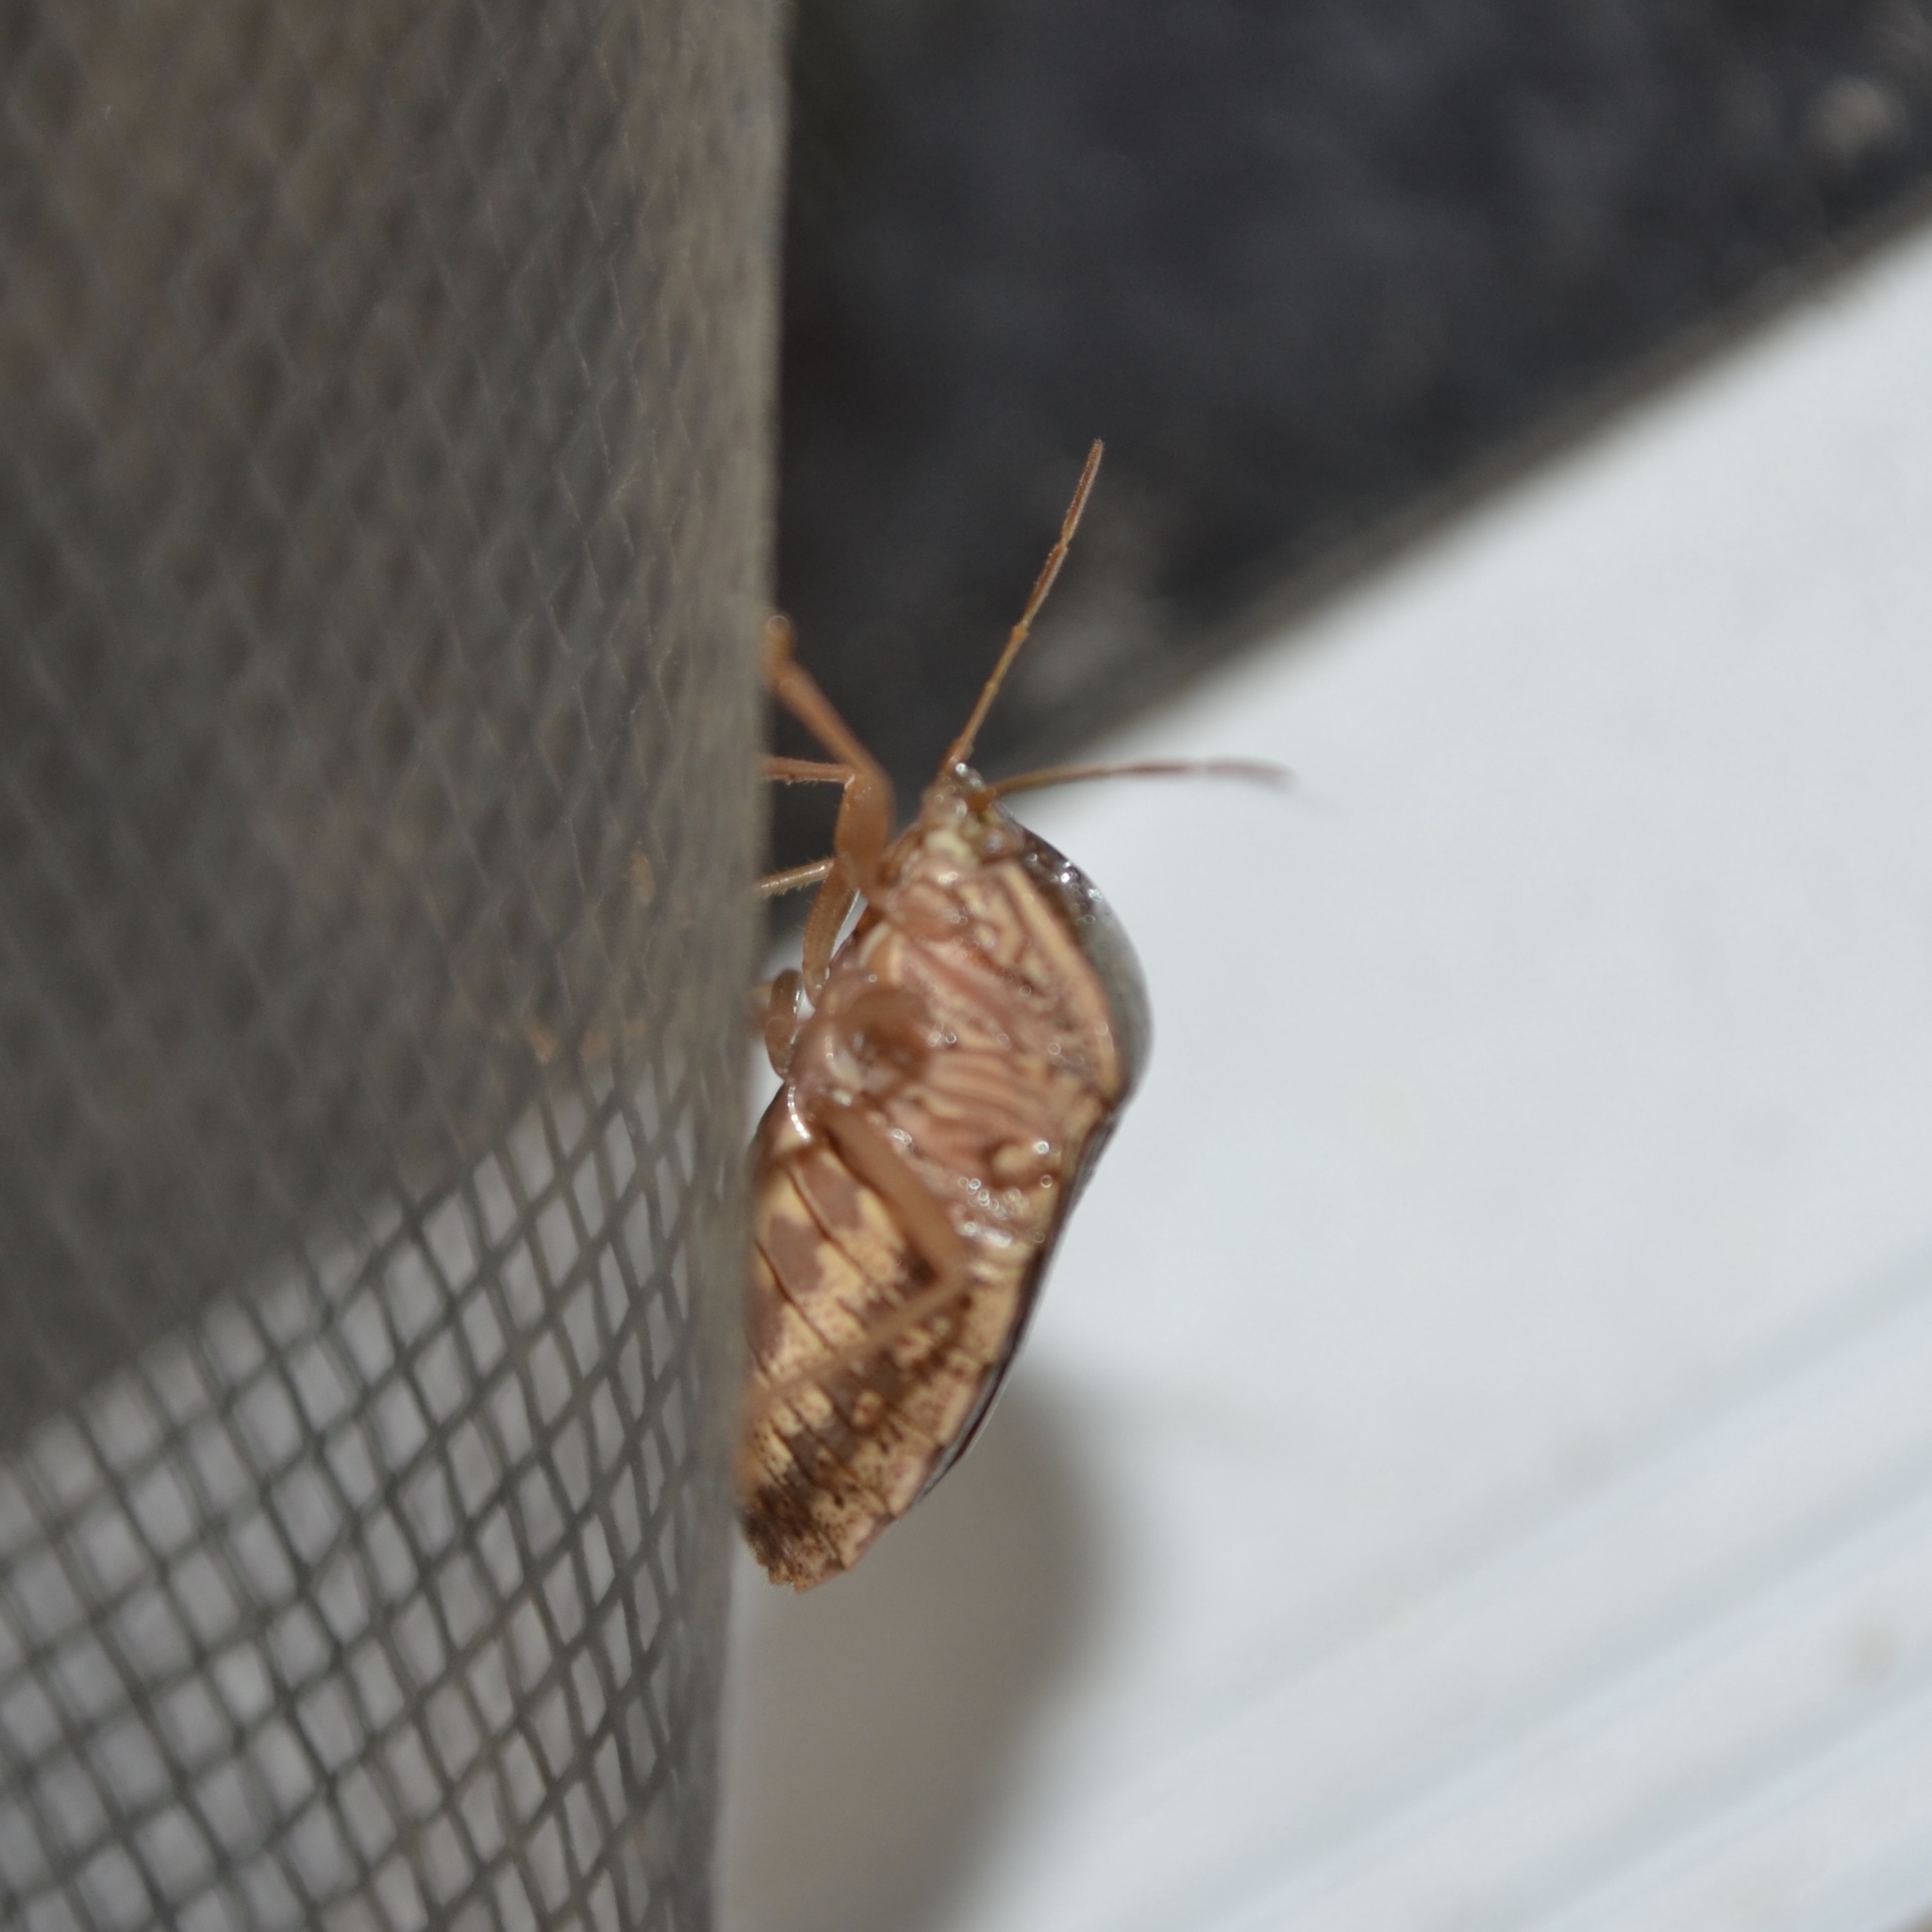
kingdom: Animalia
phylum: Arthropoda
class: Insecta
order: Hemiptera
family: Pentatomidae
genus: Edessa
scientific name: Edessa bifida
